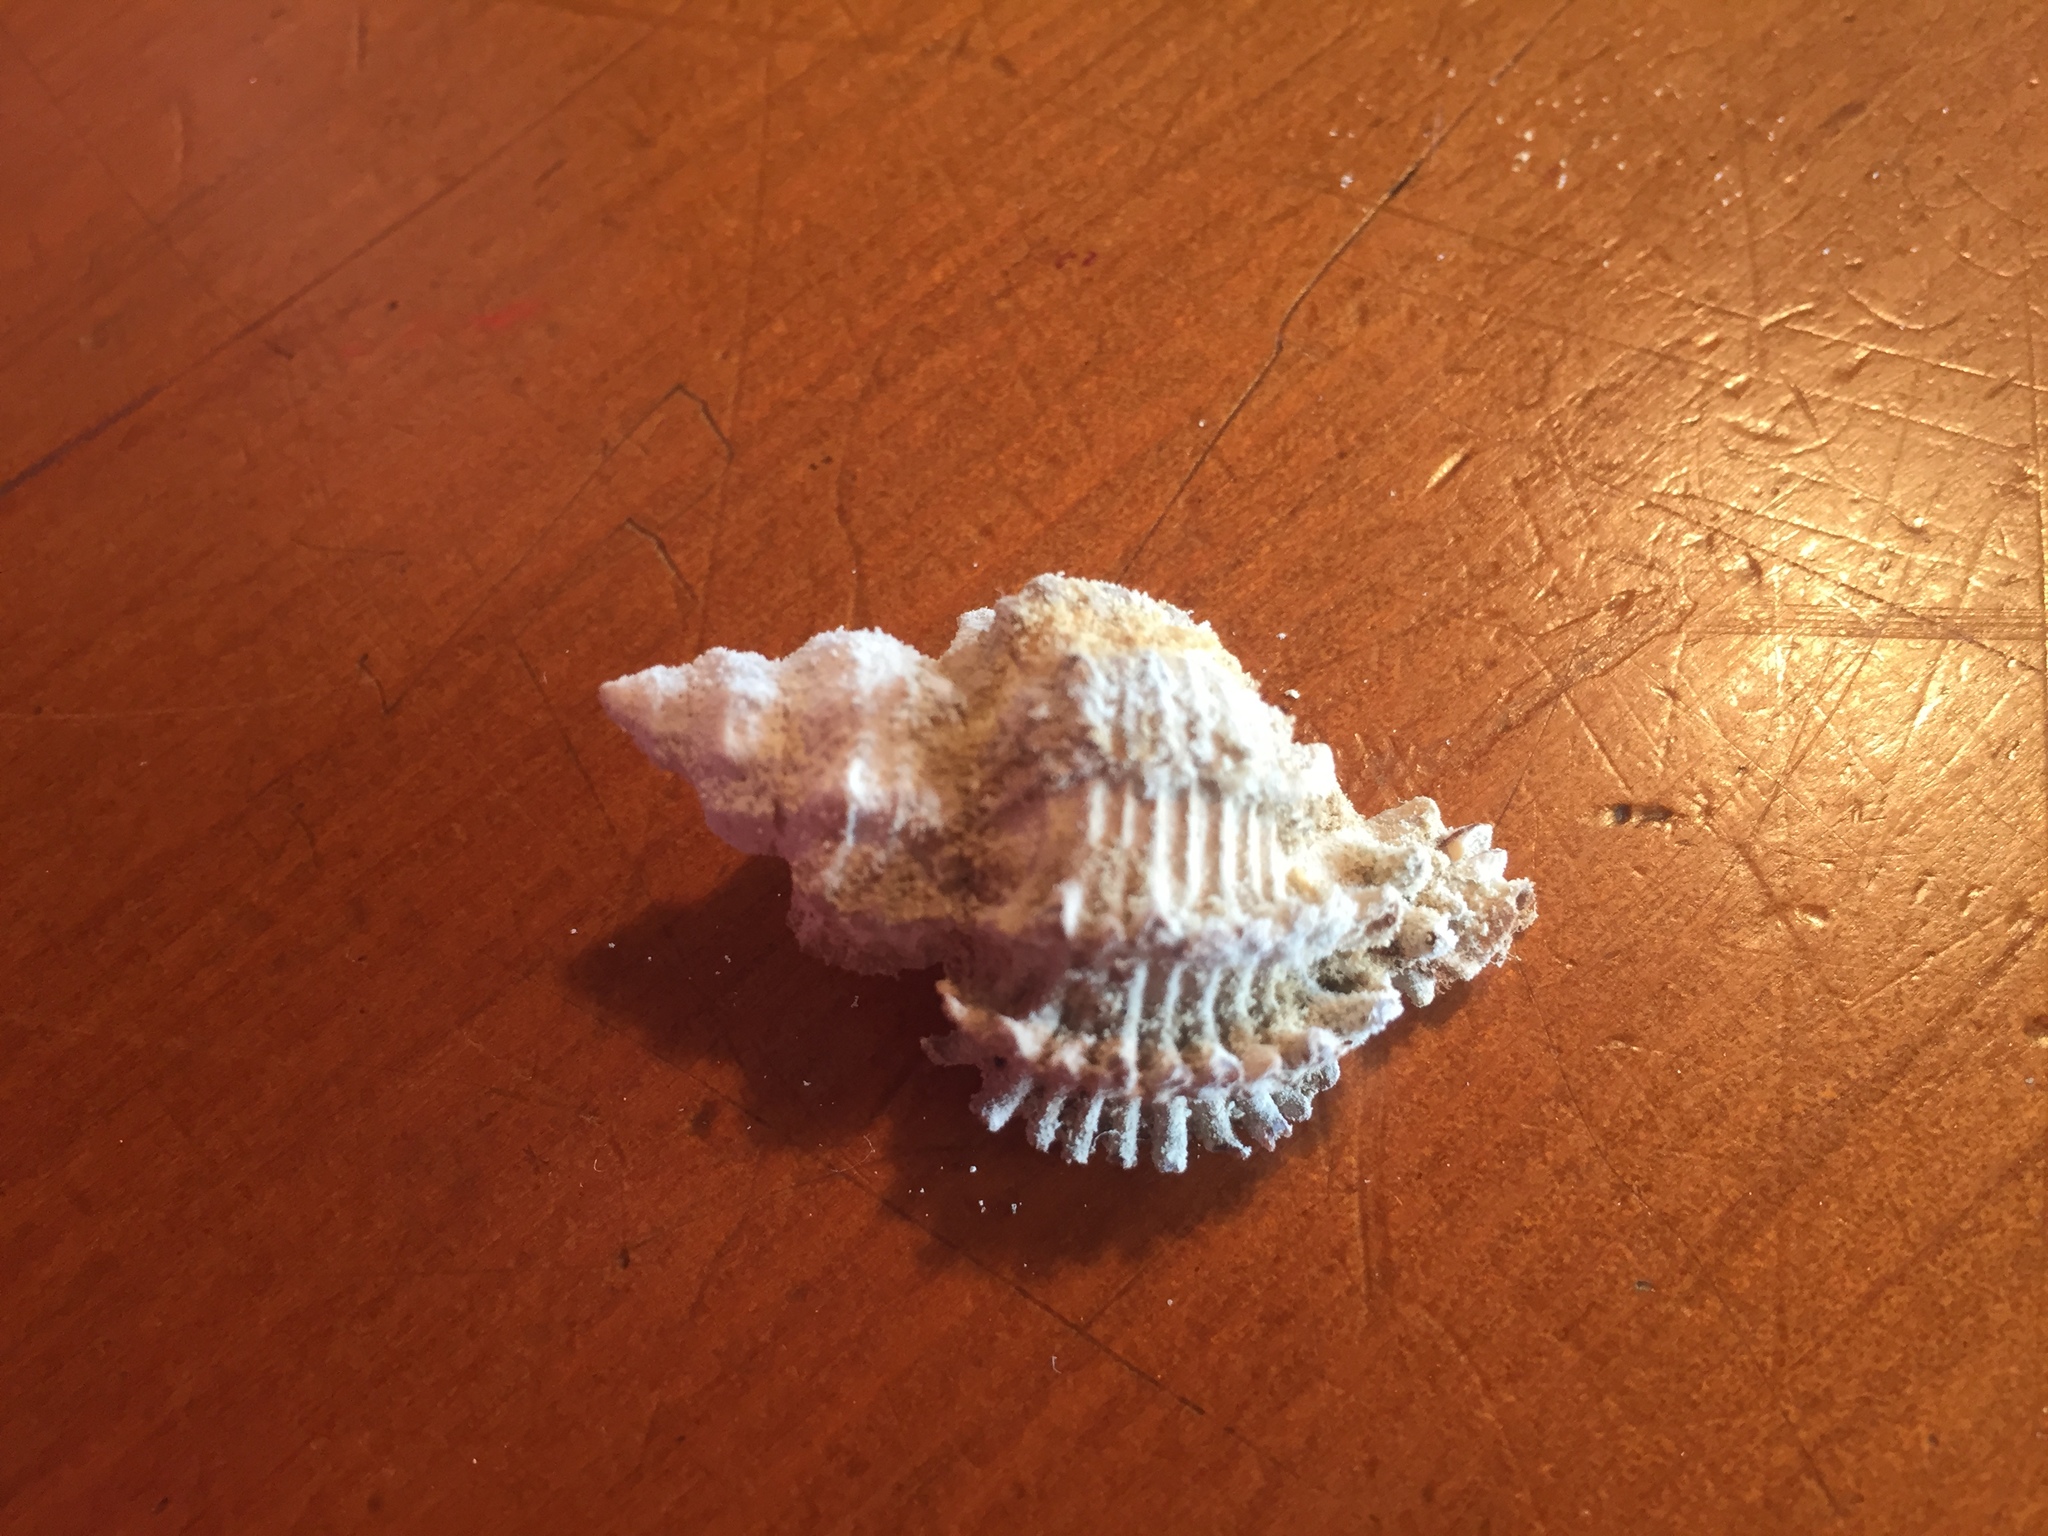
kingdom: Animalia
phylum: Mollusca
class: Gastropoda
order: Neogastropoda
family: Muricidae
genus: Murexsul
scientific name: Murexsul octogonus
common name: Octagon murex
